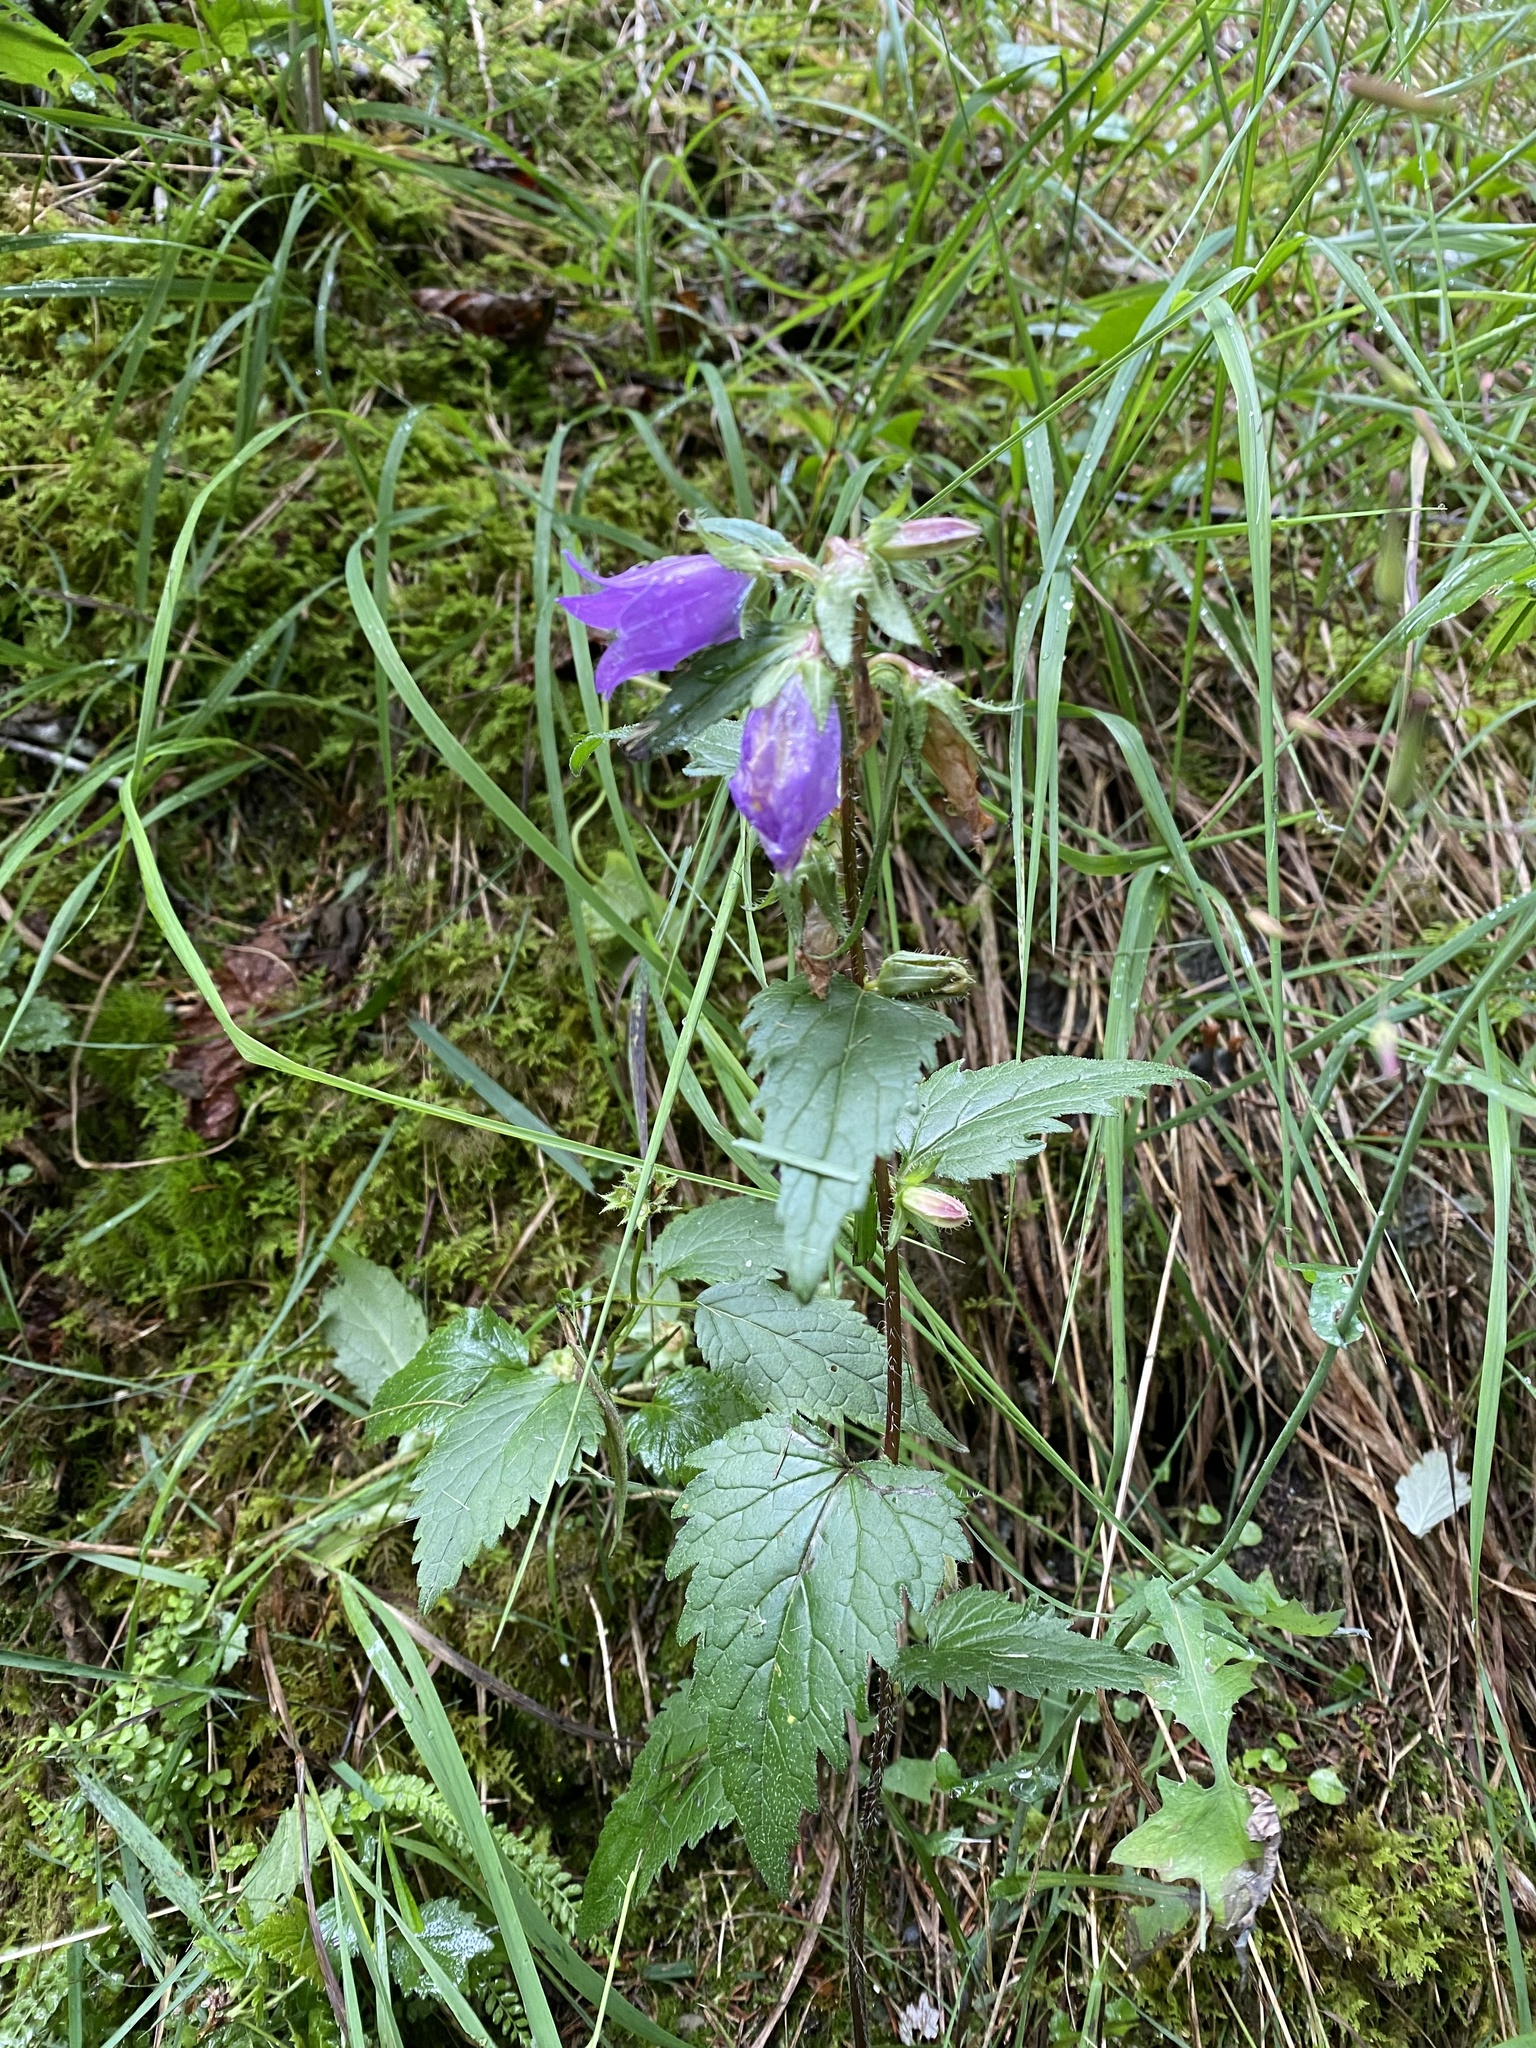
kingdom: Plantae
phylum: Tracheophyta
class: Magnoliopsida
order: Asterales
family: Campanulaceae
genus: Campanula
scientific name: Campanula trachelium
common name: Nettle-leaved bellflower
